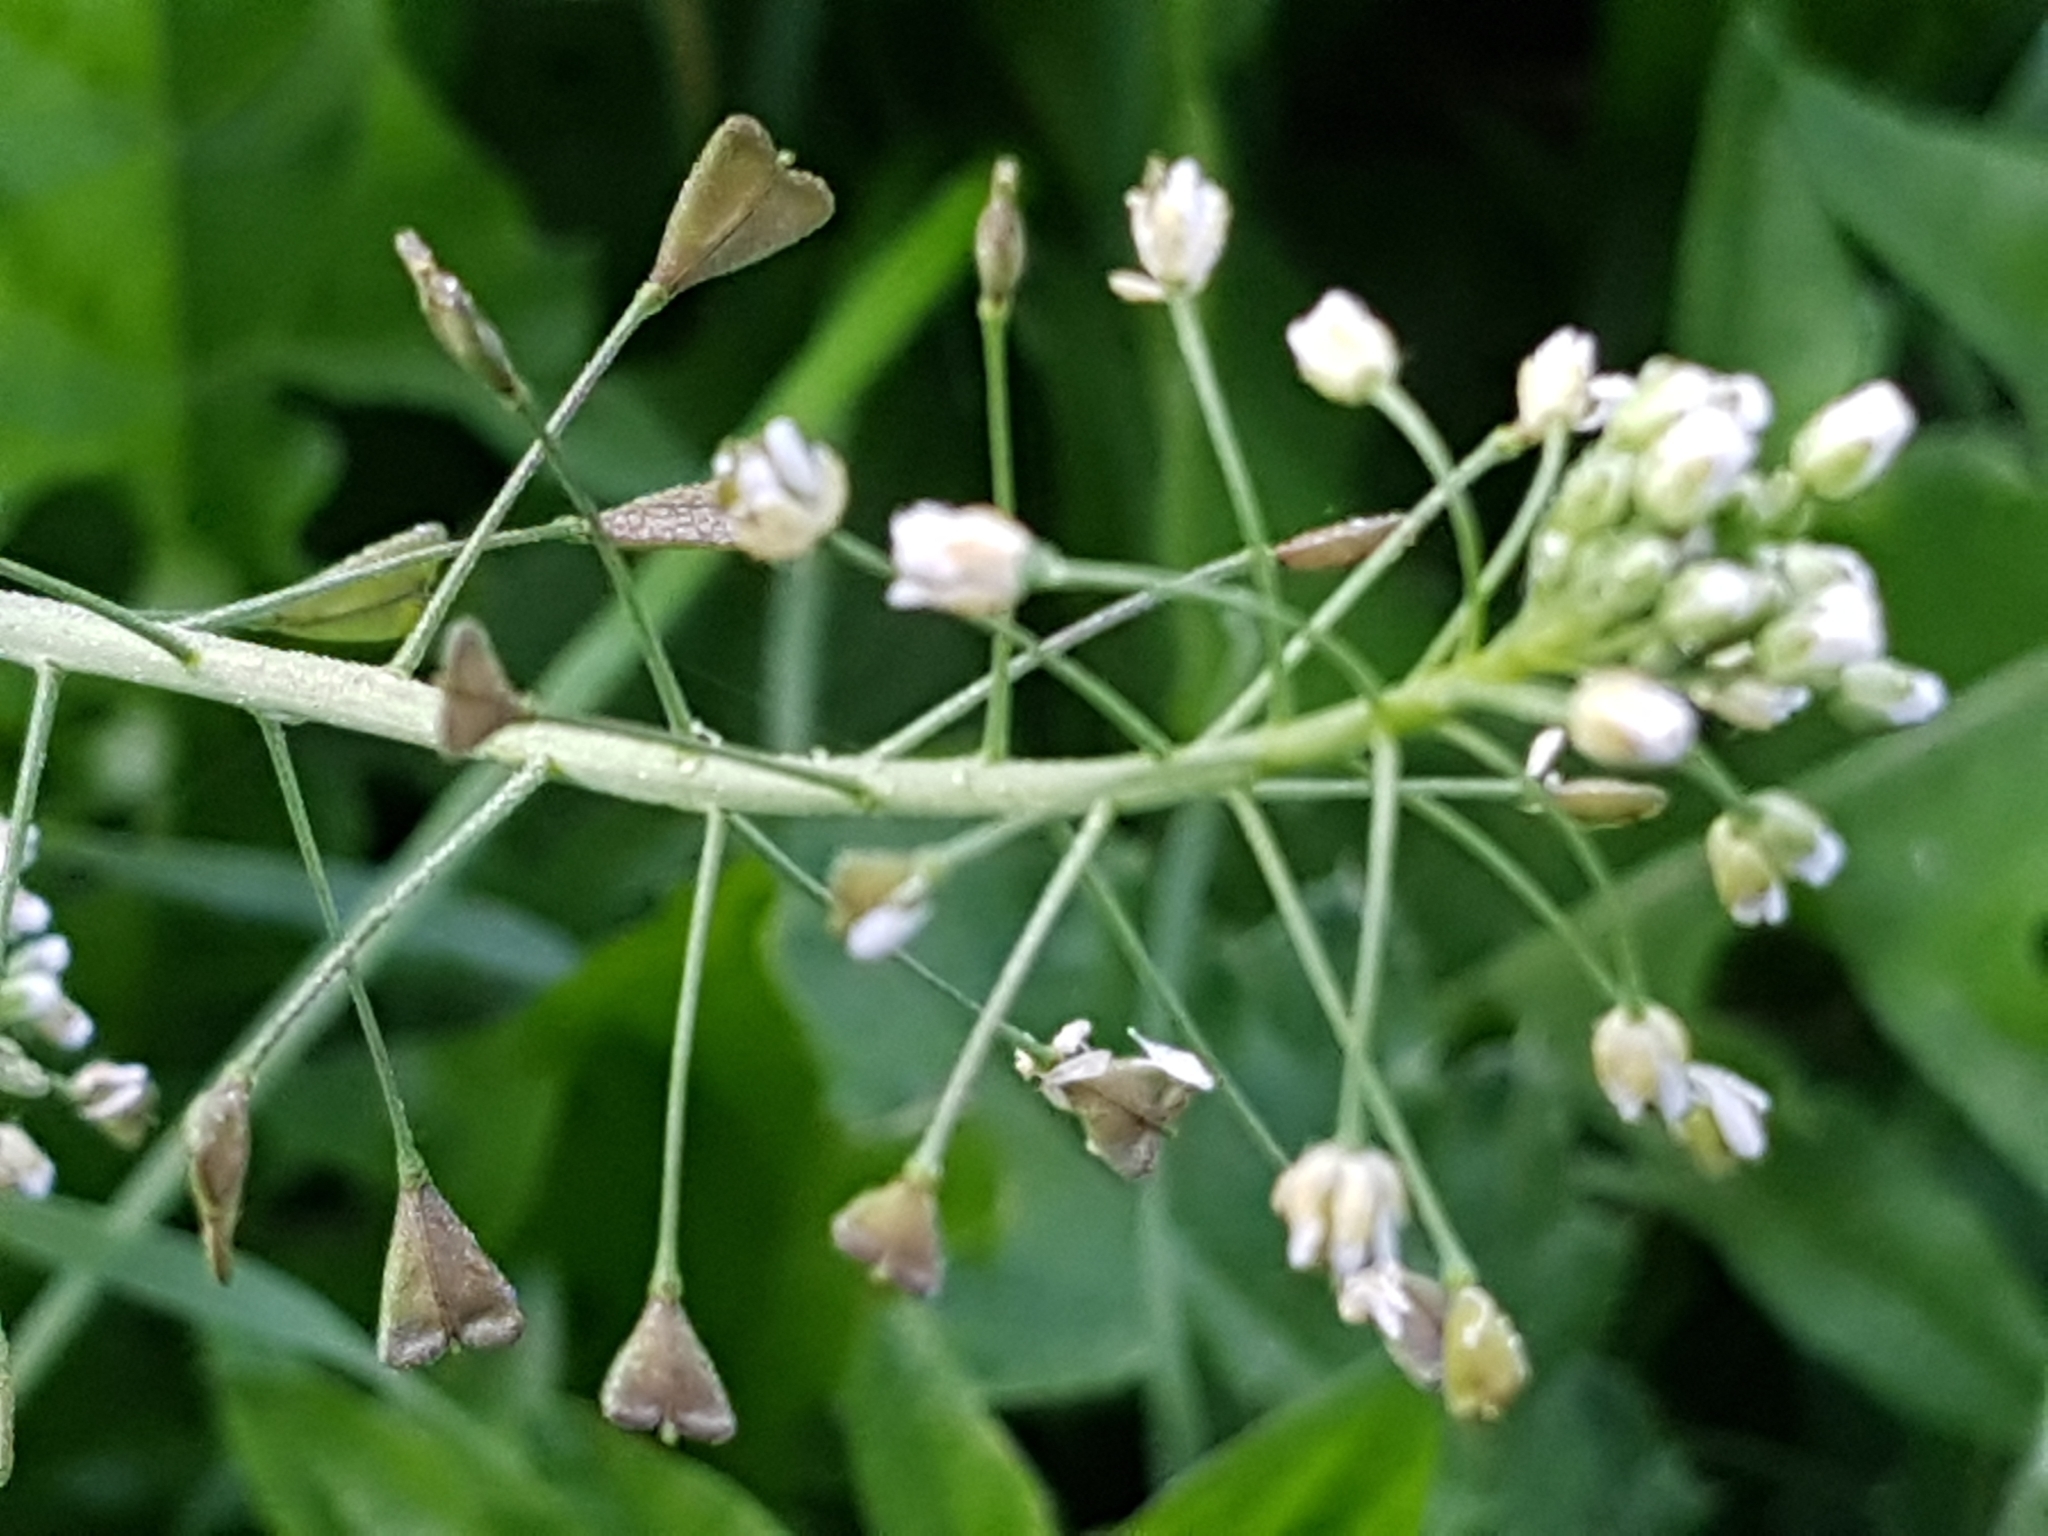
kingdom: Plantae
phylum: Tracheophyta
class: Magnoliopsida
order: Brassicales
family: Brassicaceae
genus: Capsella
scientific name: Capsella bursa-pastoris
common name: Shepherd's purse
